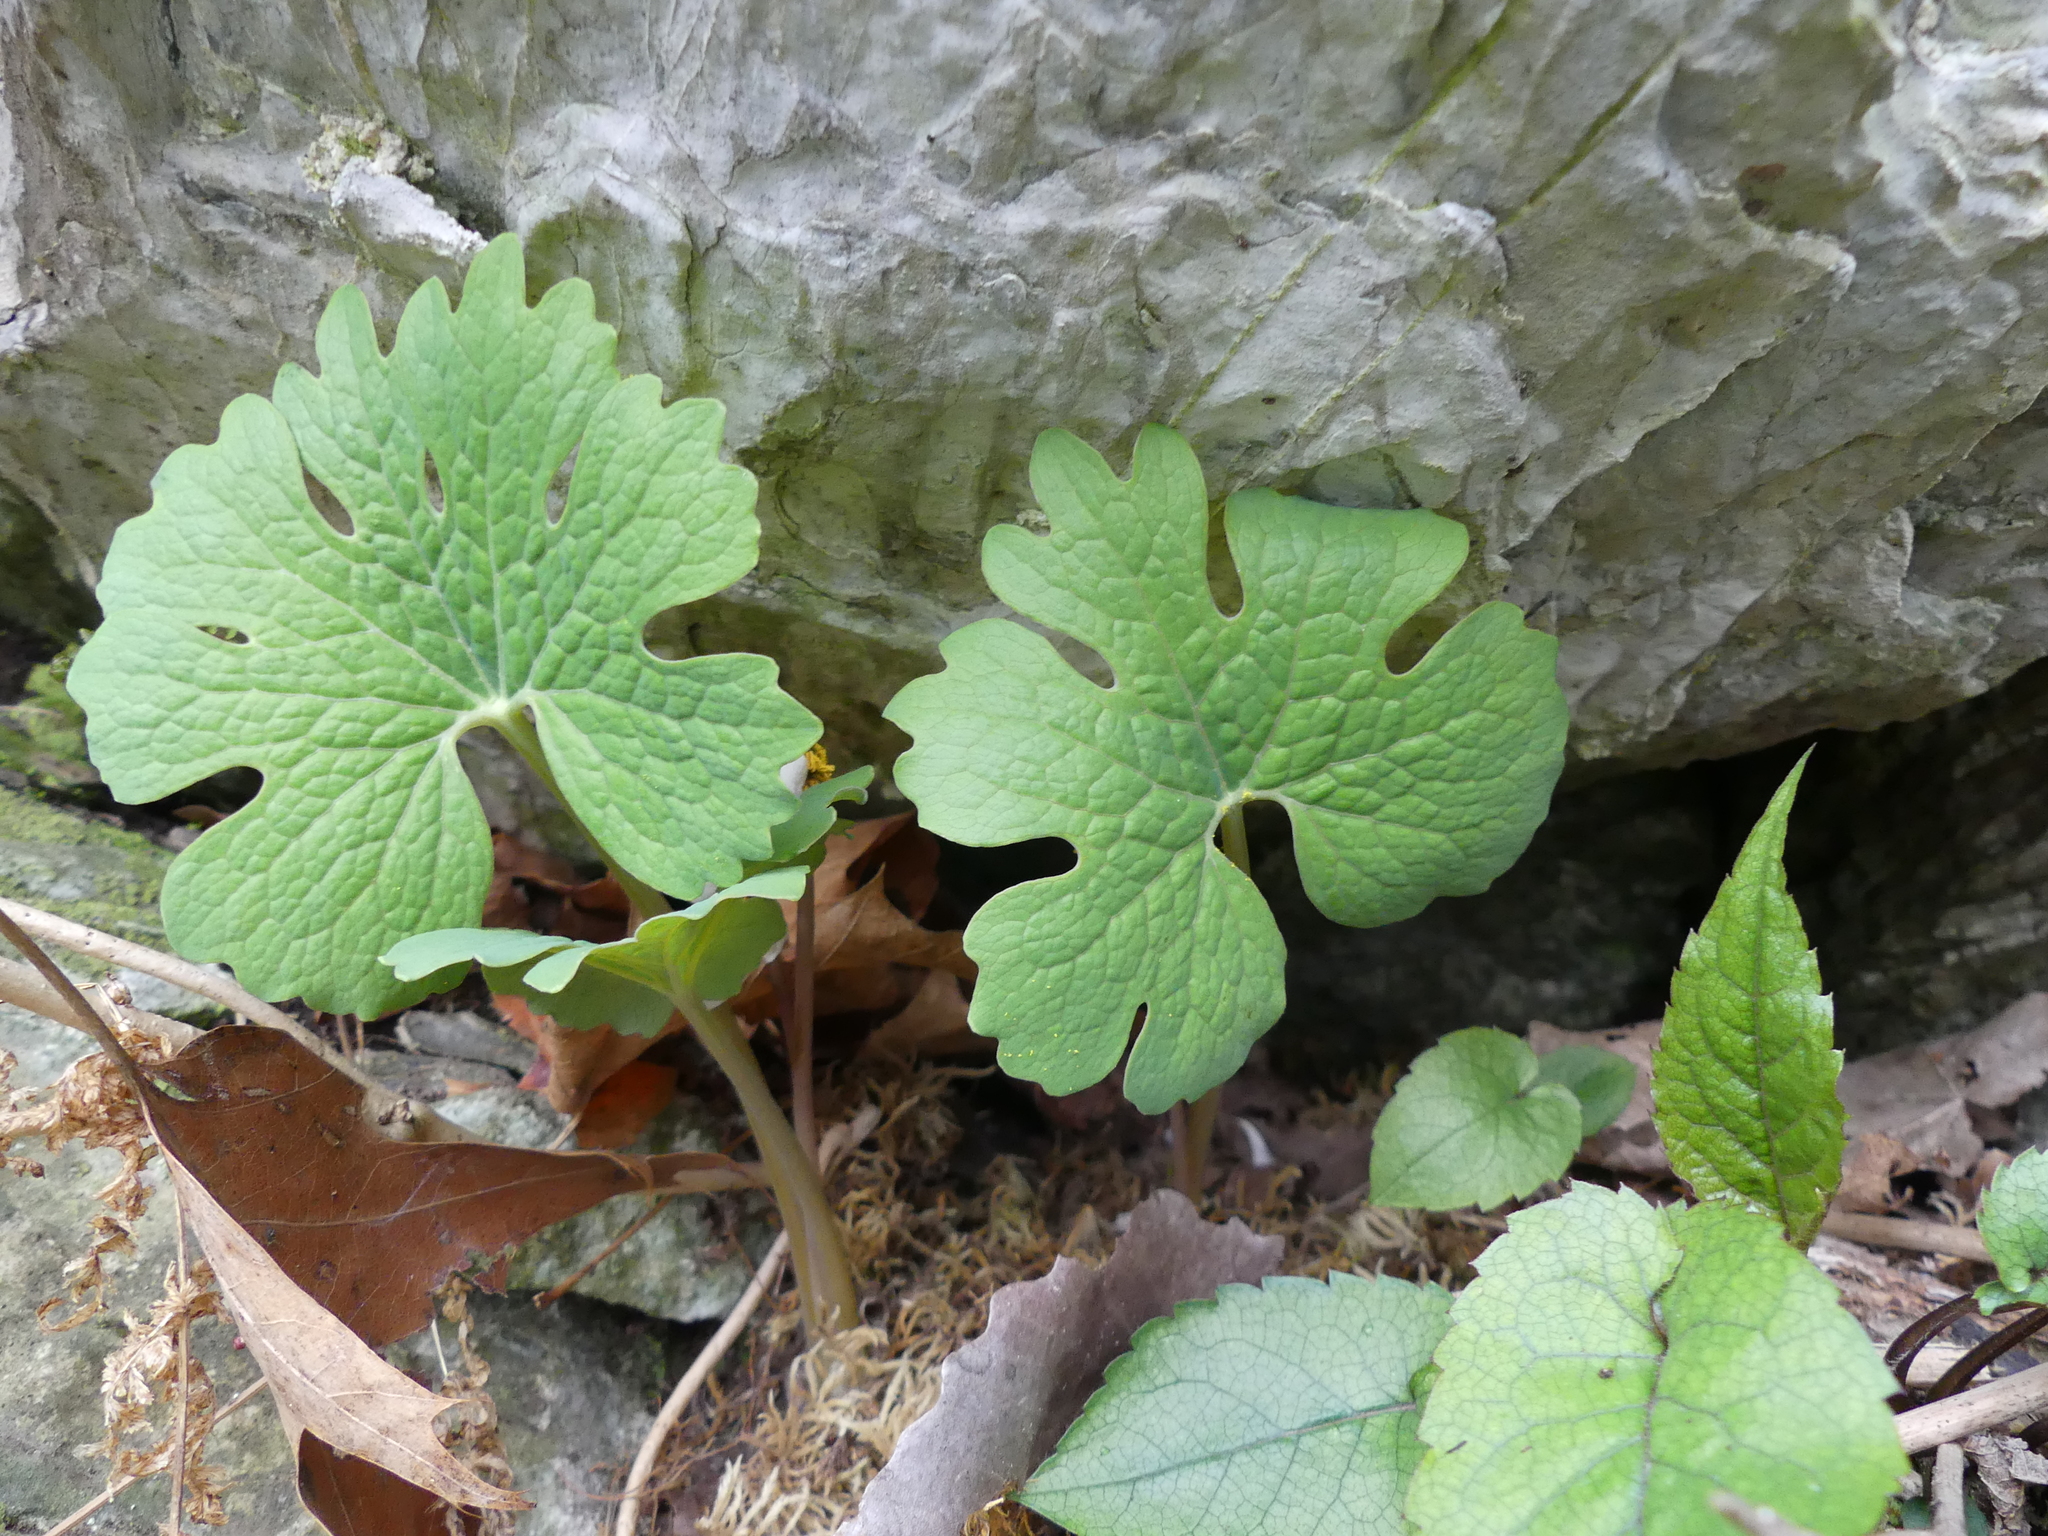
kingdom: Plantae
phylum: Tracheophyta
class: Magnoliopsida
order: Ranunculales
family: Papaveraceae
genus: Sanguinaria
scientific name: Sanguinaria canadensis
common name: Bloodroot
